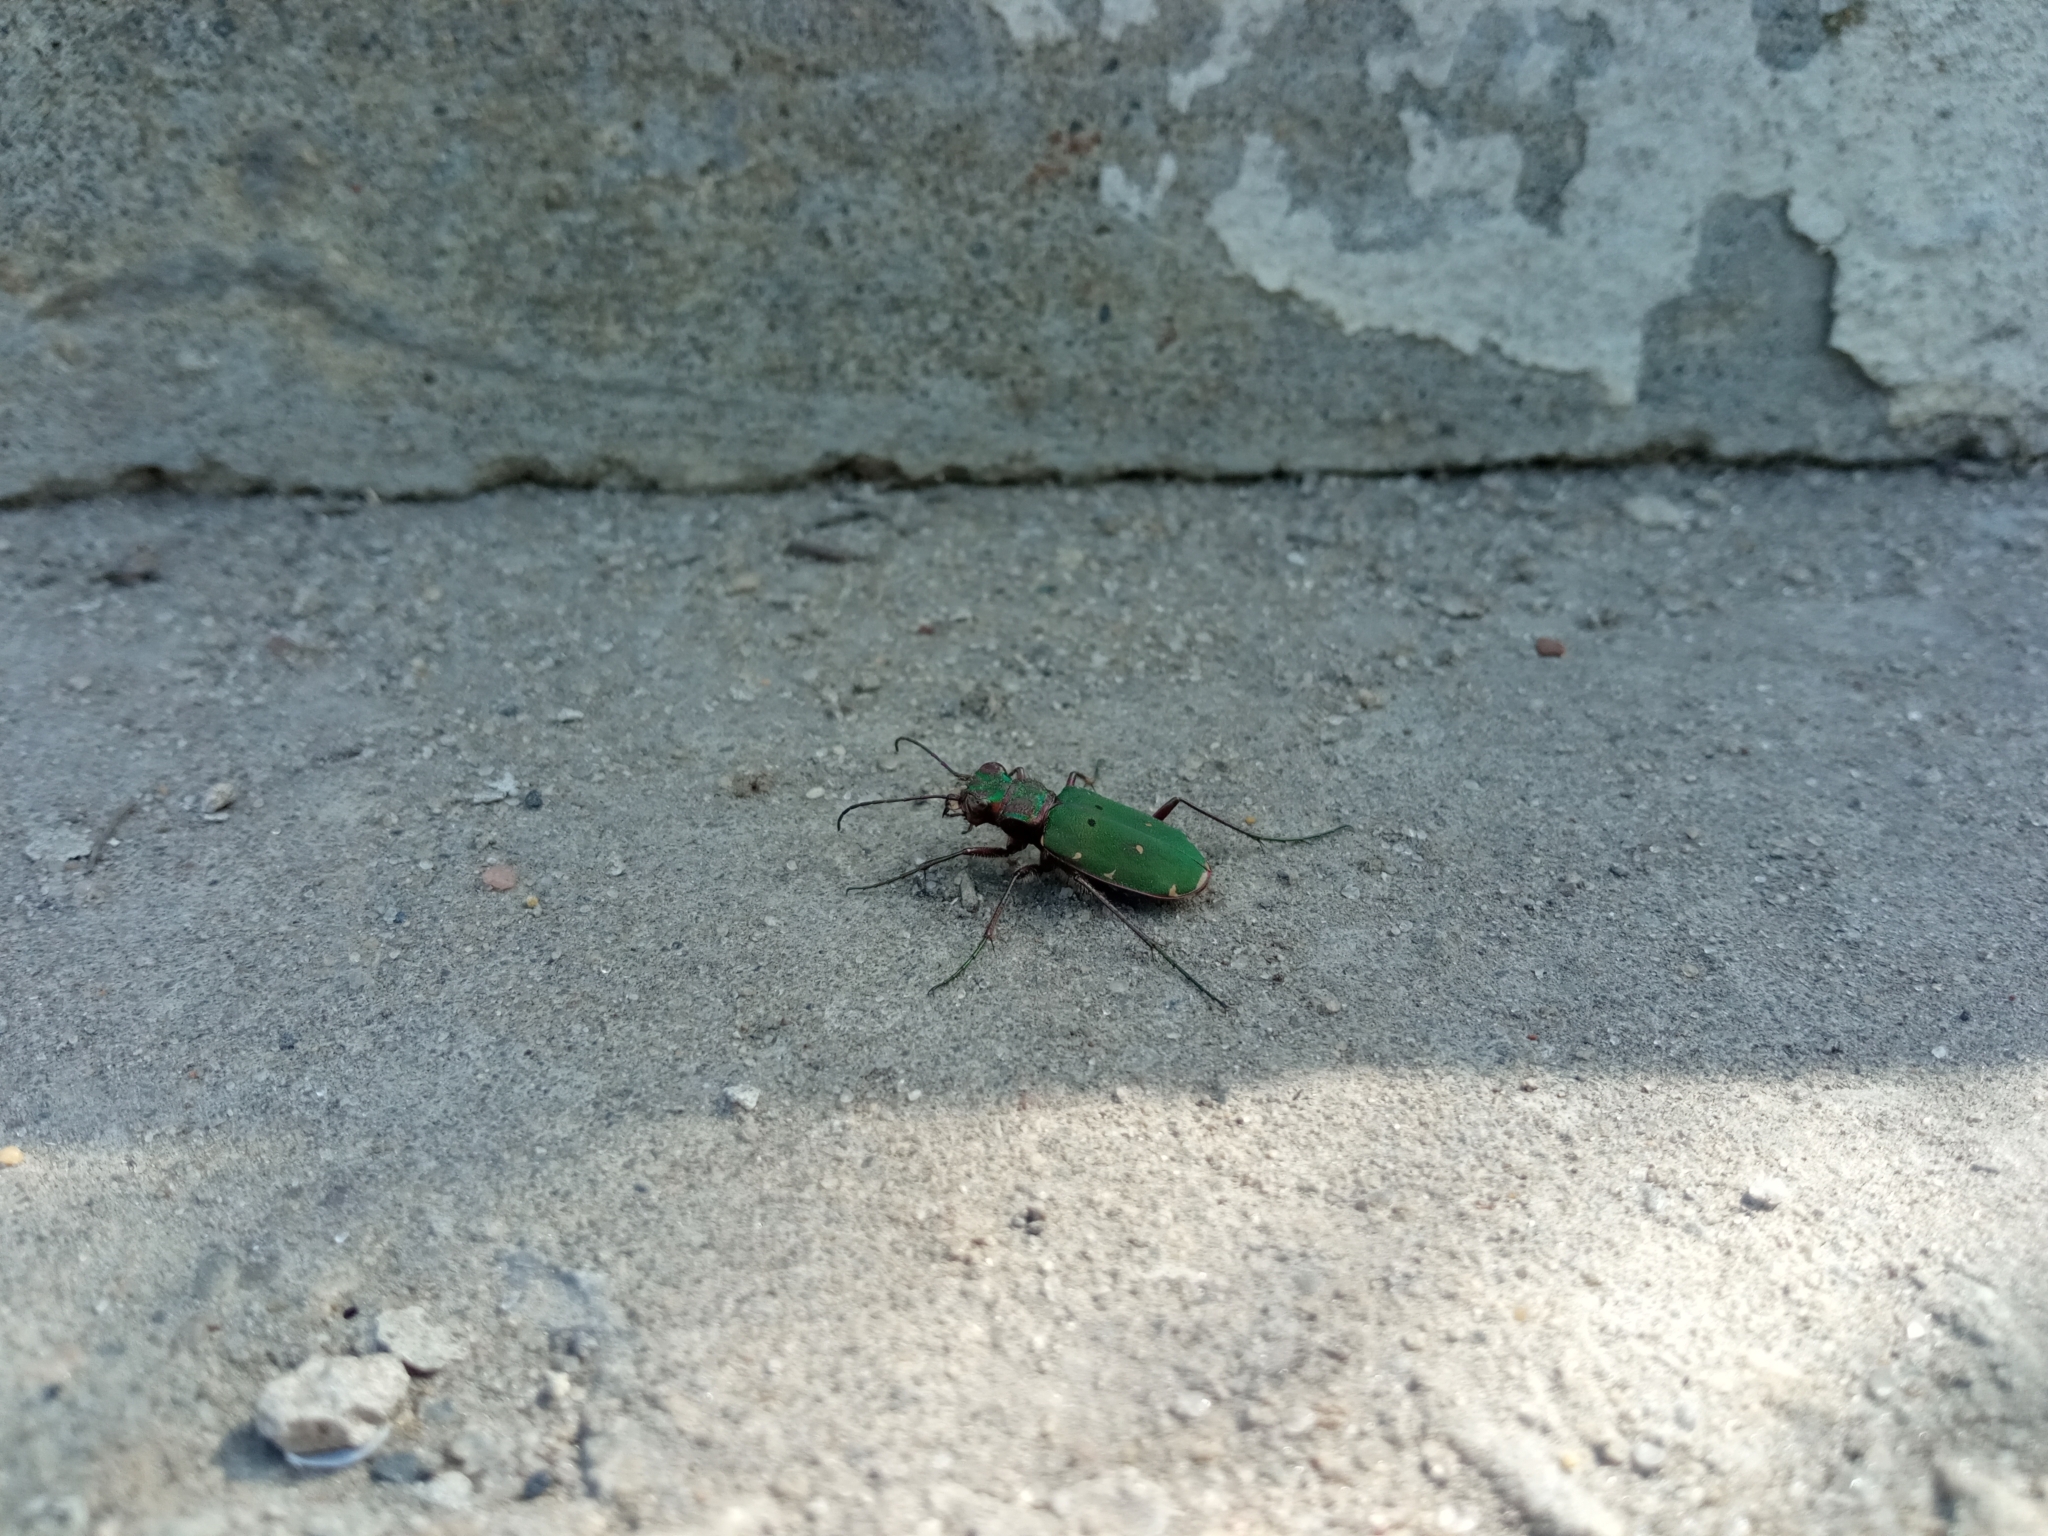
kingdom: Animalia
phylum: Arthropoda
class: Insecta
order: Coleoptera
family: Carabidae
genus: Cicindela
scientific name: Cicindela campestris
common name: Common tiger beetle
